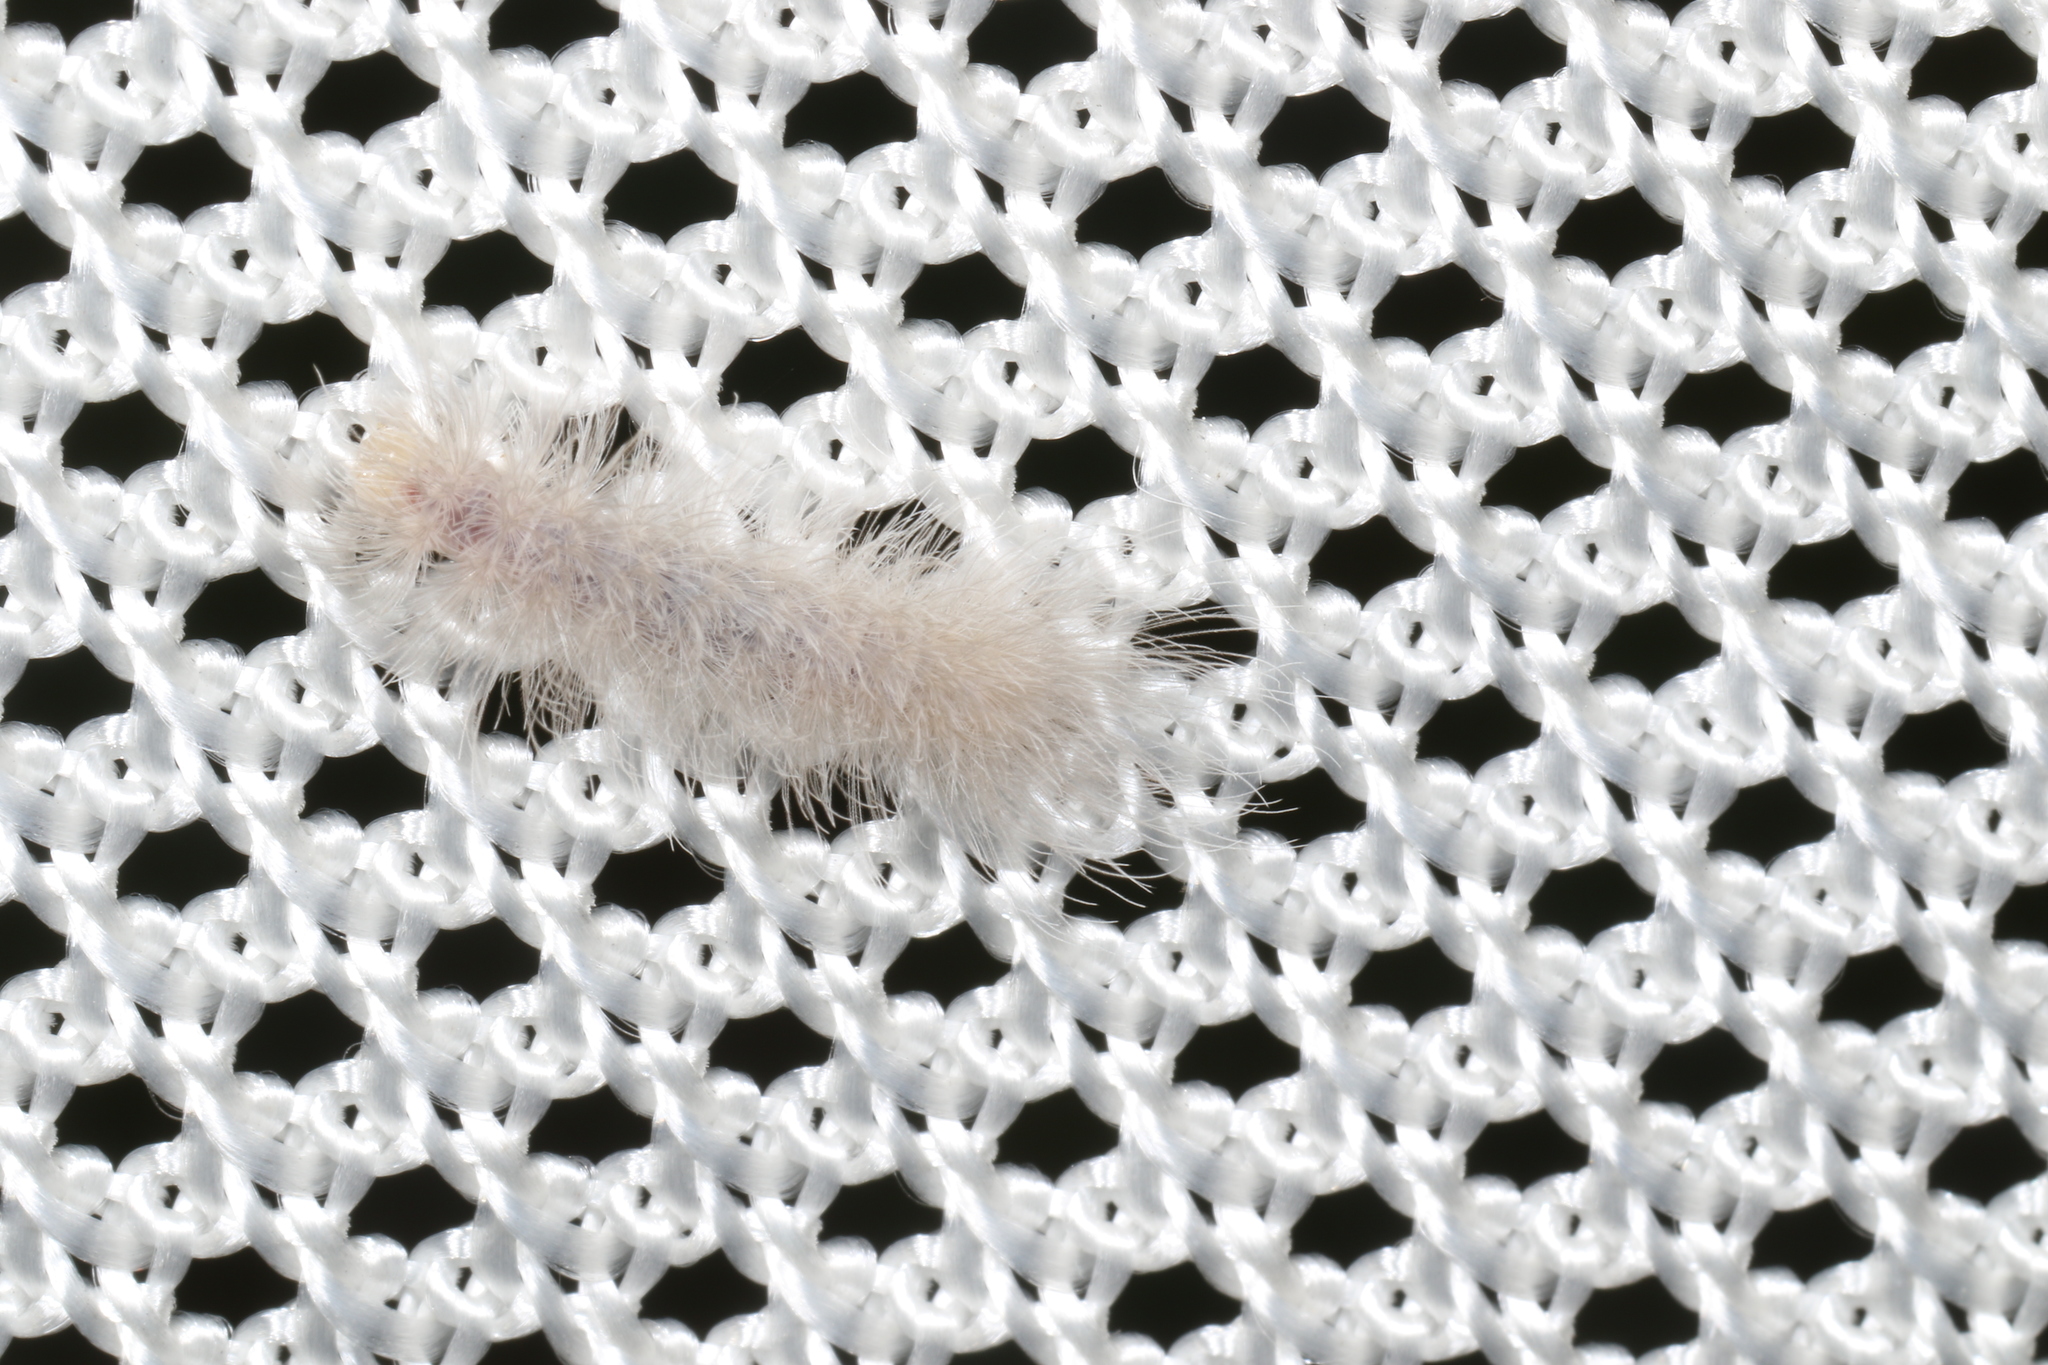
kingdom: Animalia
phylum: Arthropoda
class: Insecta
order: Lepidoptera
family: Erebidae
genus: Cycnia
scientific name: Cycnia tenera
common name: Delicate cycnia moth
